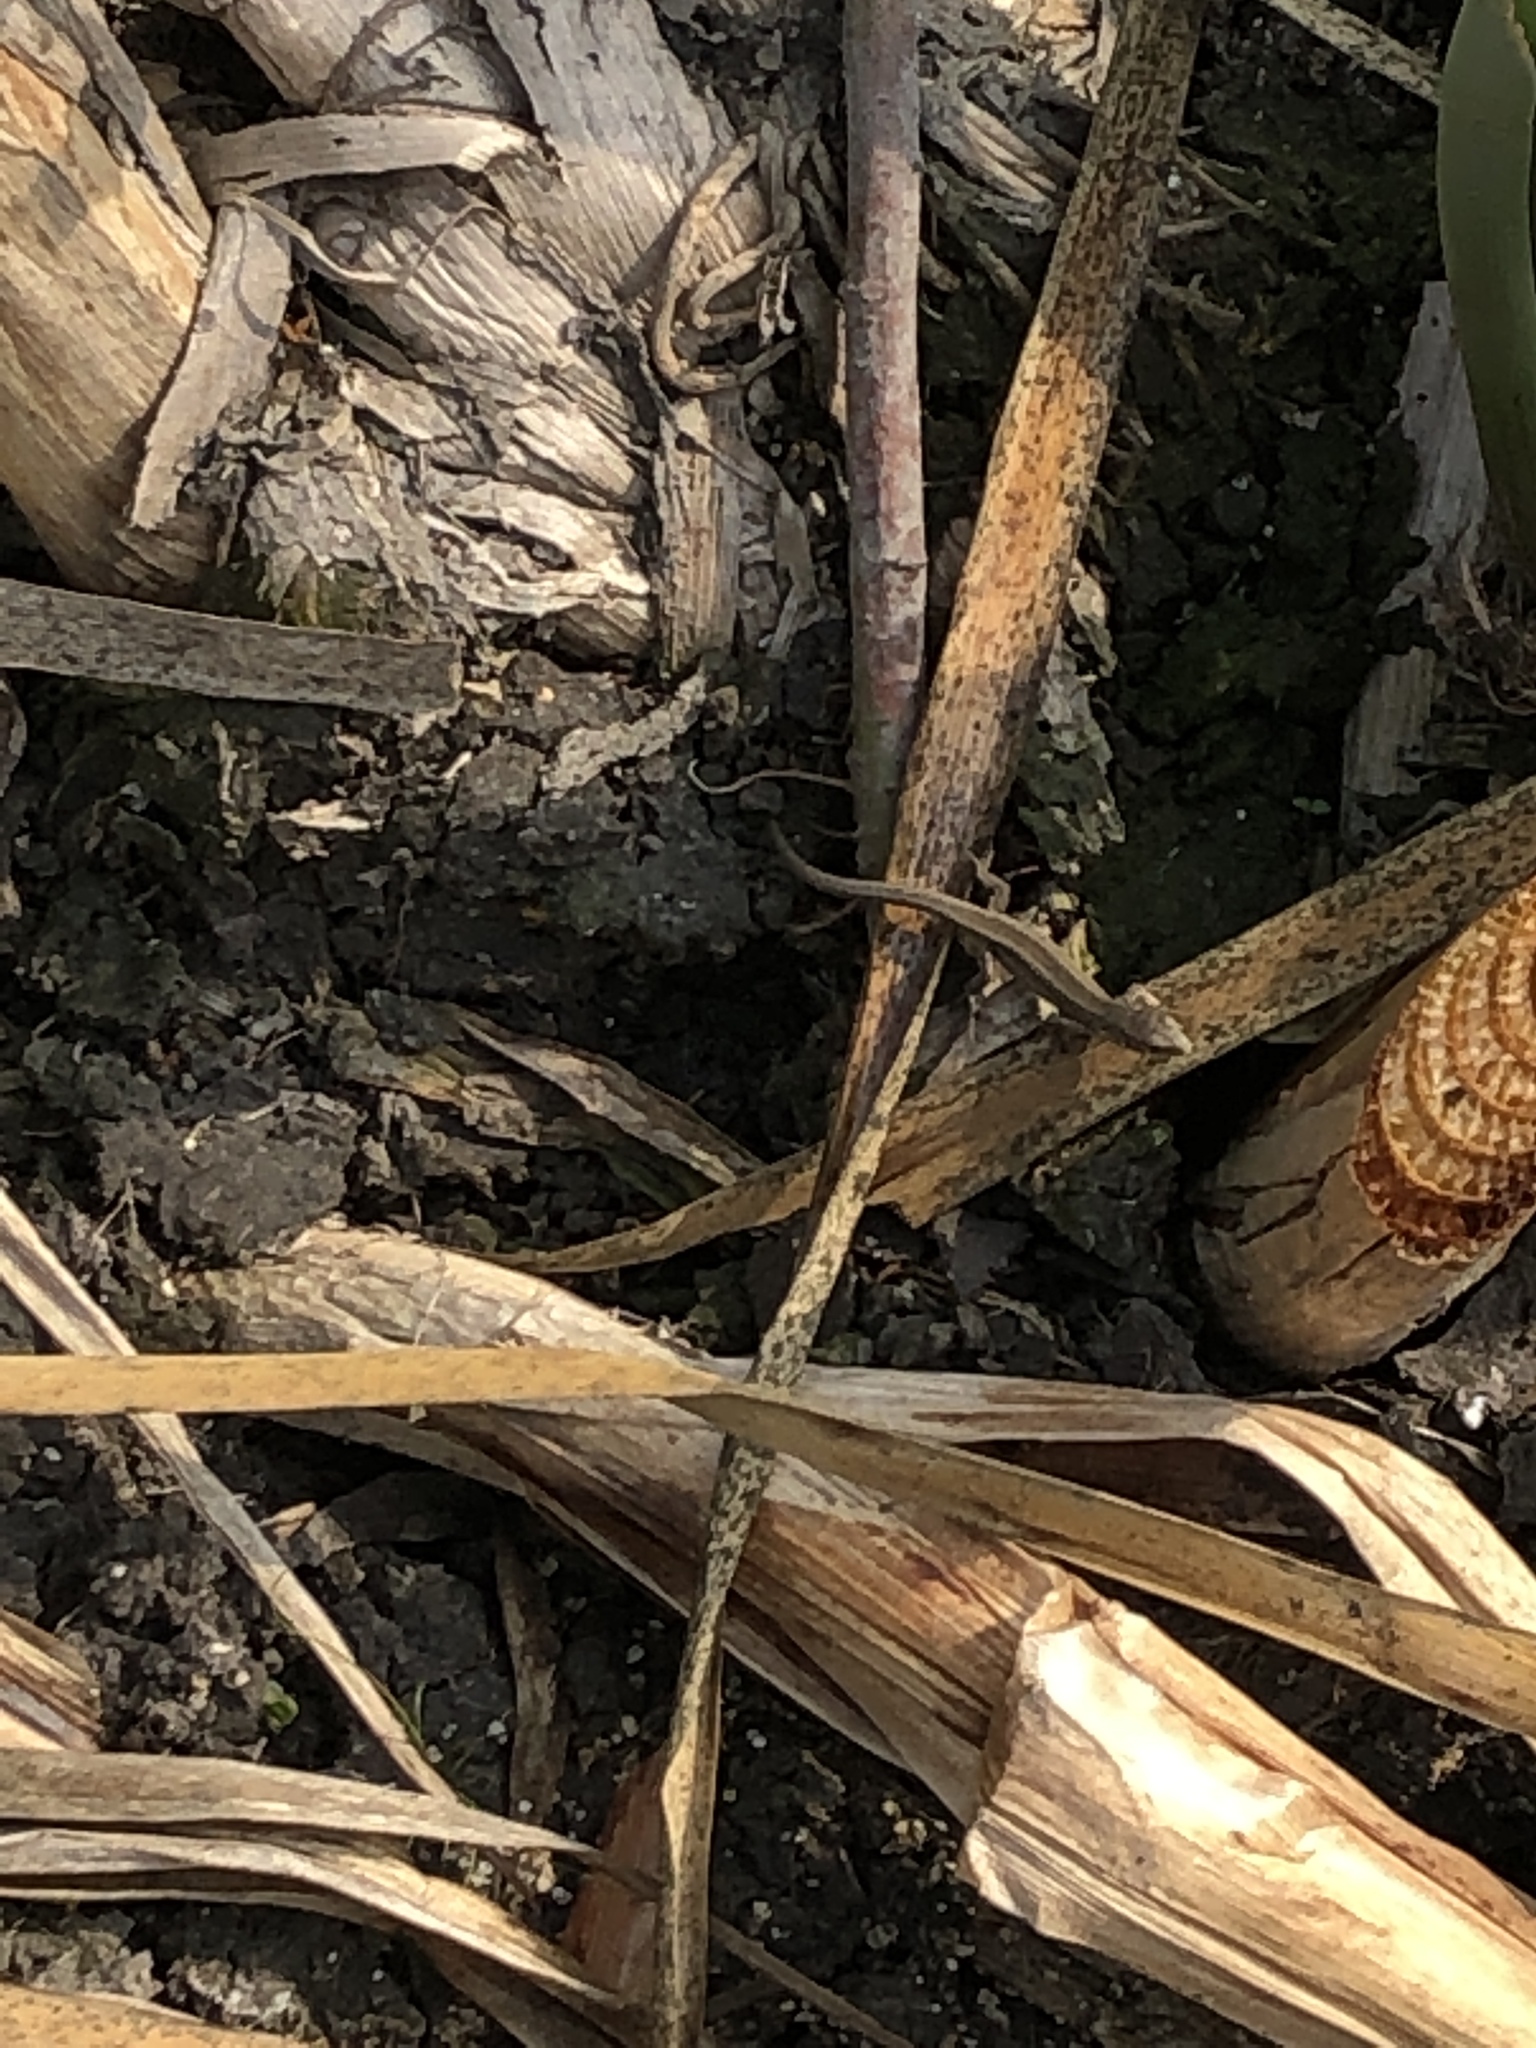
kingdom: Animalia
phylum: Chordata
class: Squamata
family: Lacertidae
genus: Lacerta
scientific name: Lacerta agilis
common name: Sand lizard
